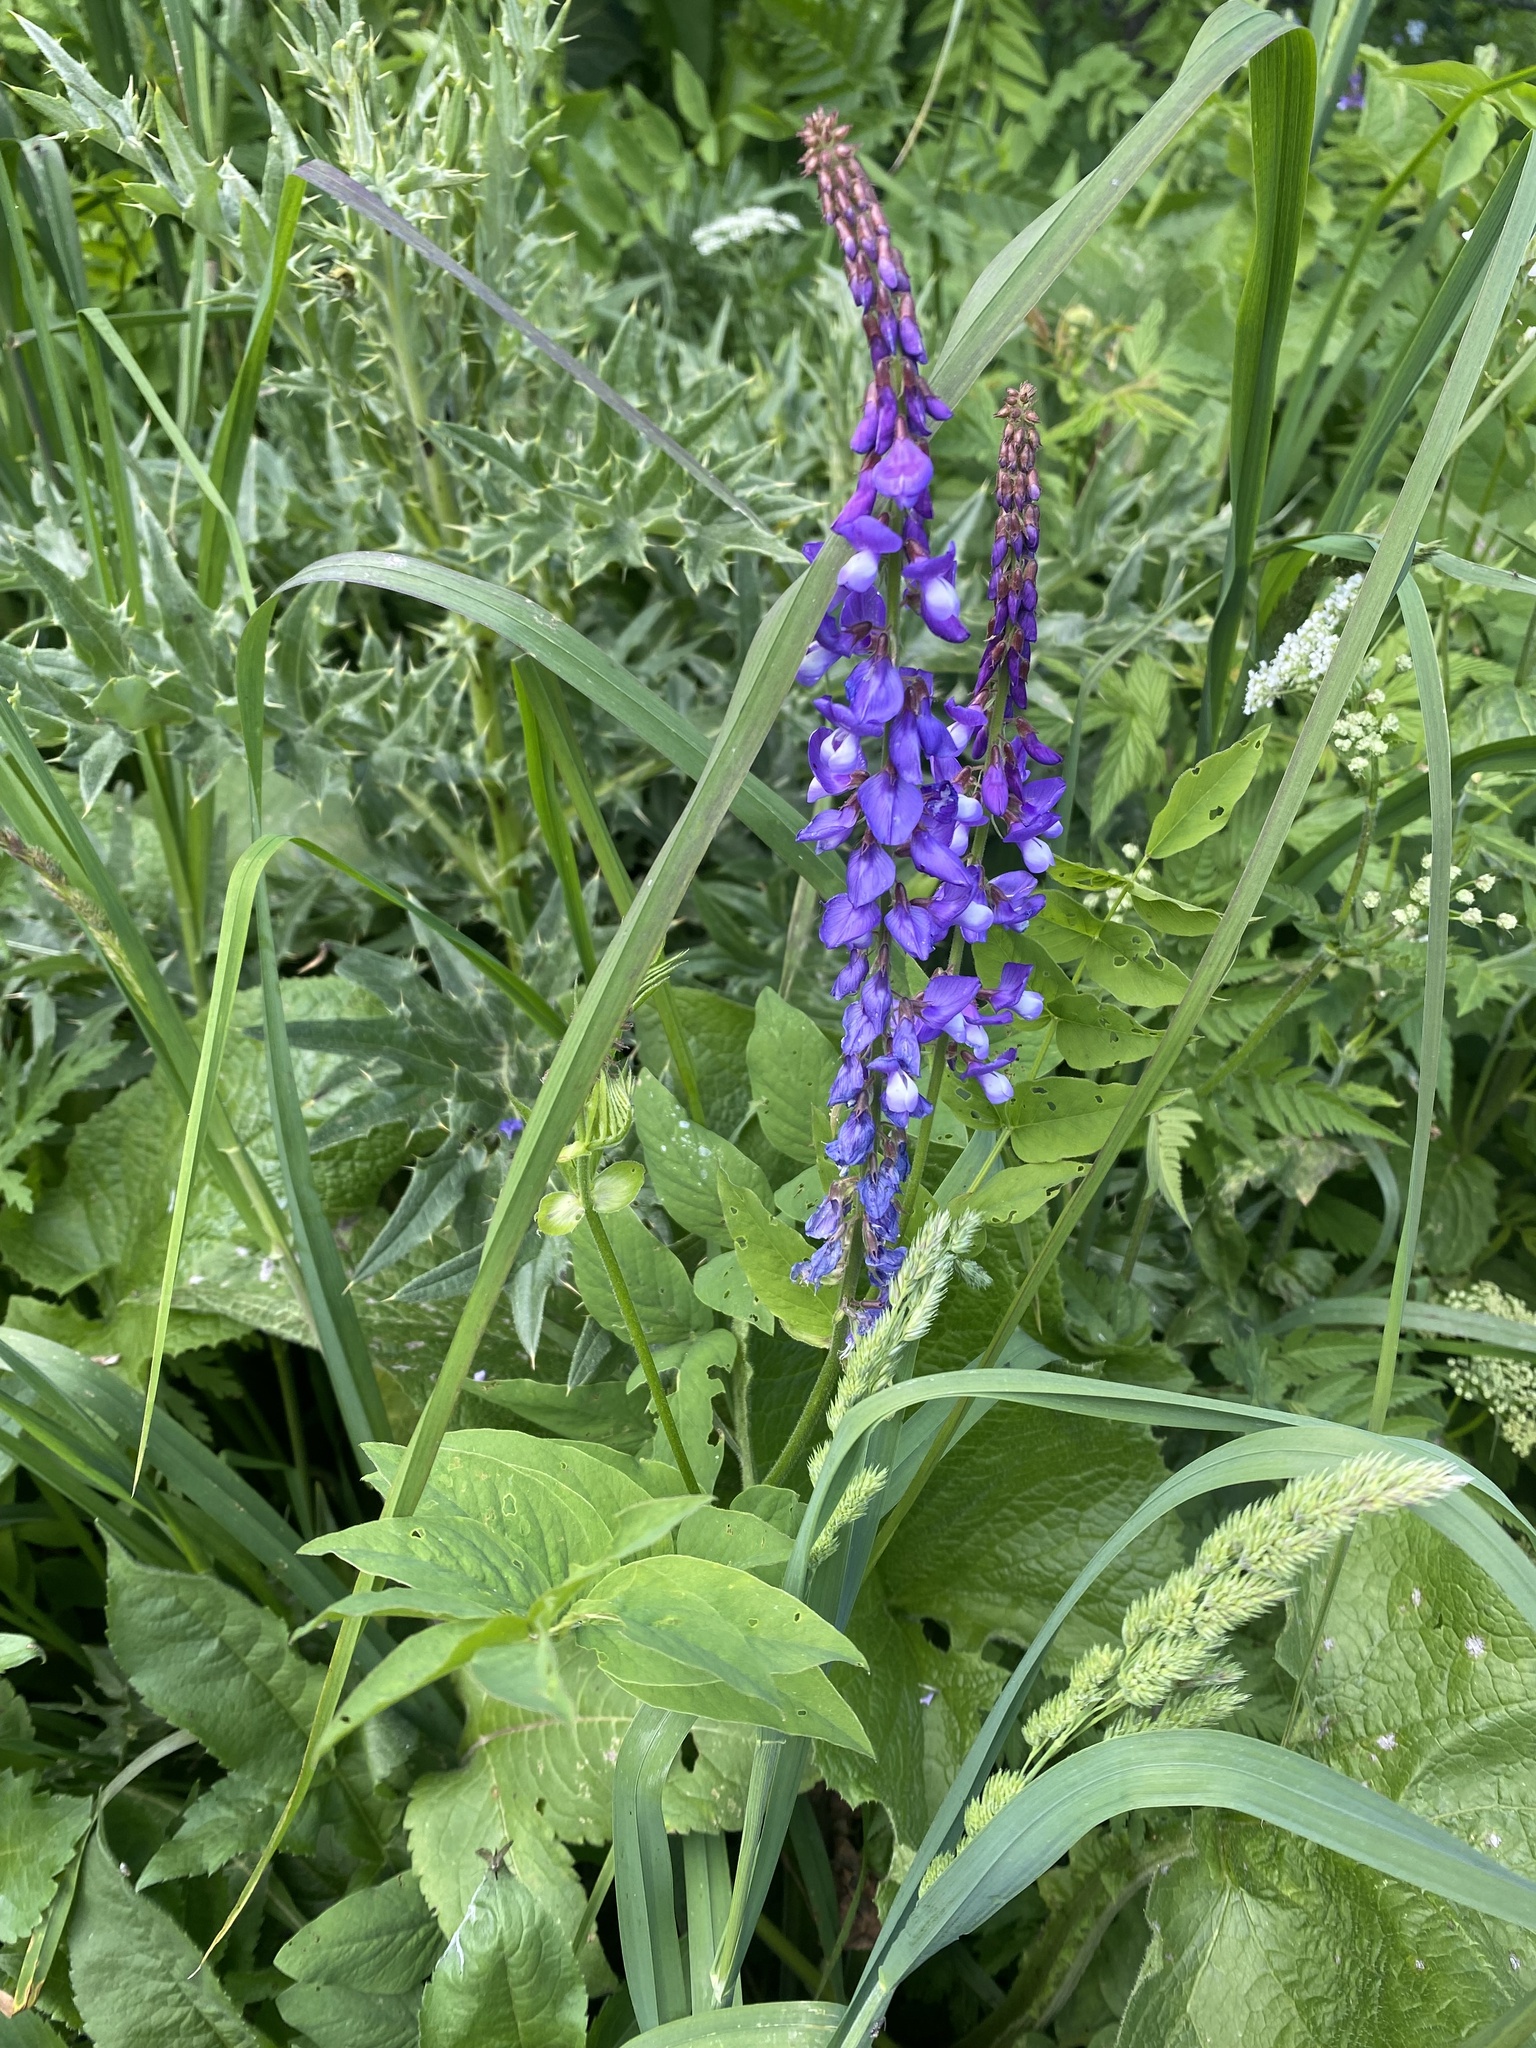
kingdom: Plantae
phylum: Tracheophyta
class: Magnoliopsida
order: Fabales
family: Fabaceae
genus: Galega
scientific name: Galega orientalis
